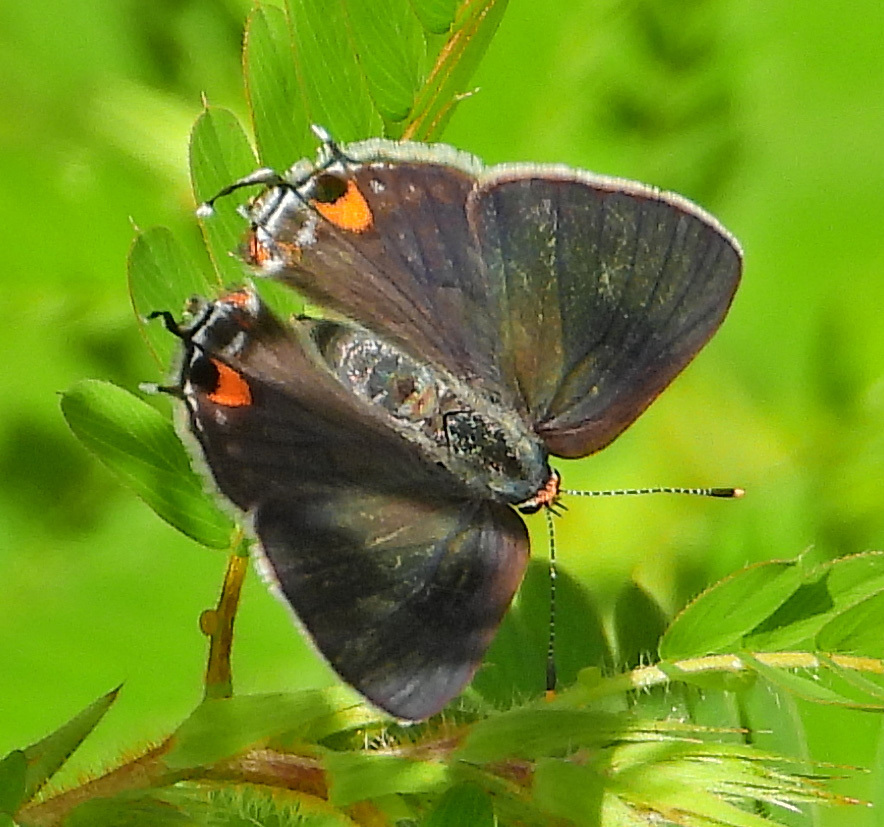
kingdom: Animalia
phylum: Arthropoda
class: Insecta
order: Lepidoptera
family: Lycaenidae
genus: Strymon
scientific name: Strymon melinus
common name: Gray hairstreak
